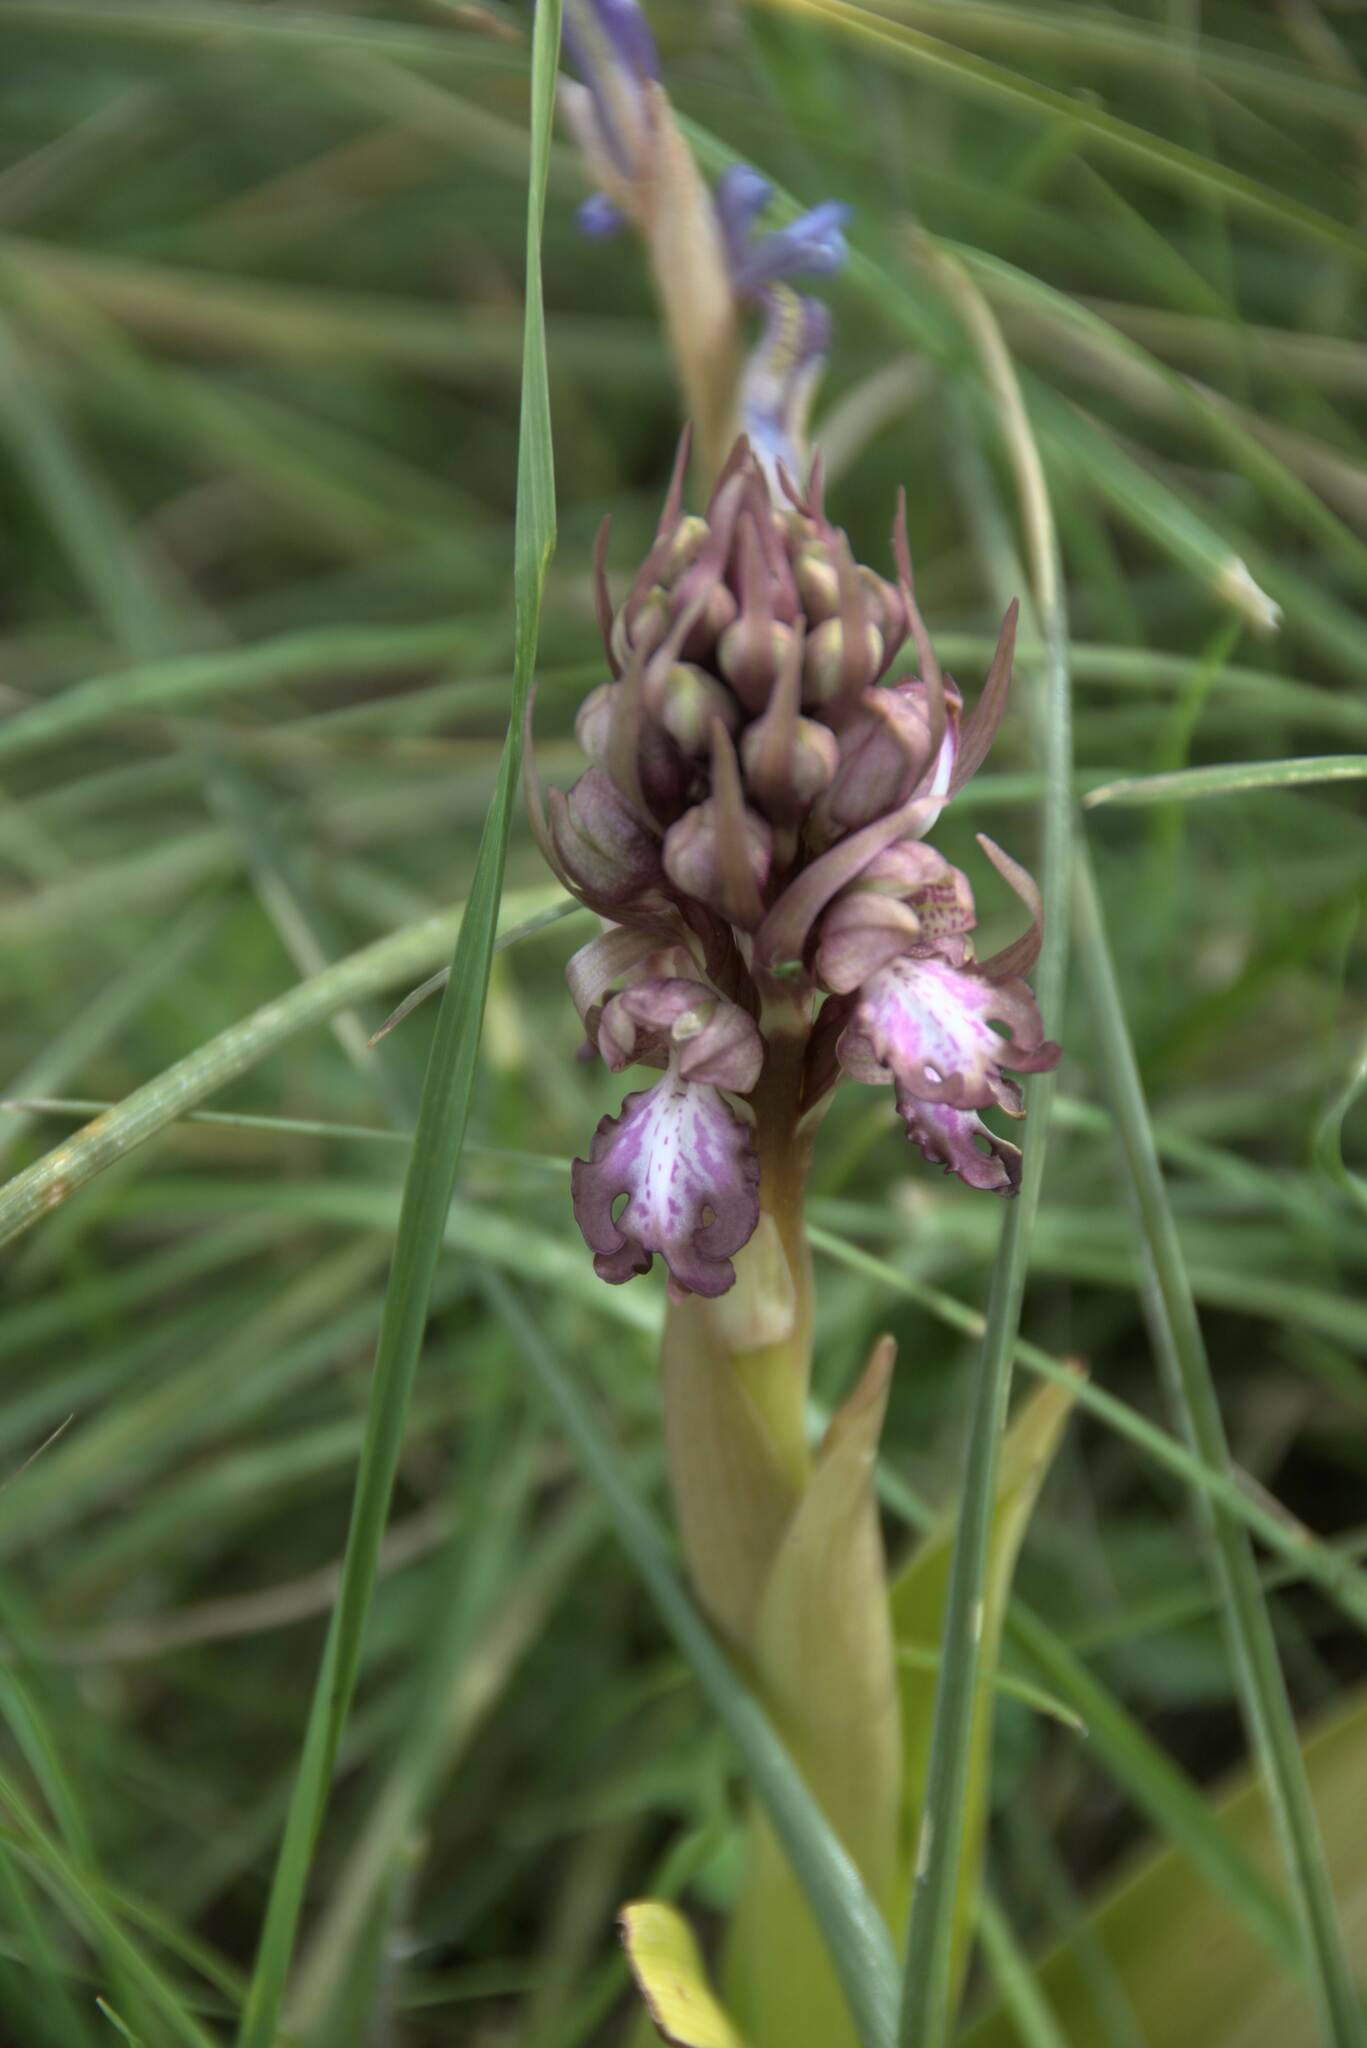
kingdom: Plantae
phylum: Tracheophyta
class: Liliopsida
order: Asparagales
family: Orchidaceae
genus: Himantoglossum
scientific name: Himantoglossum robertianum
